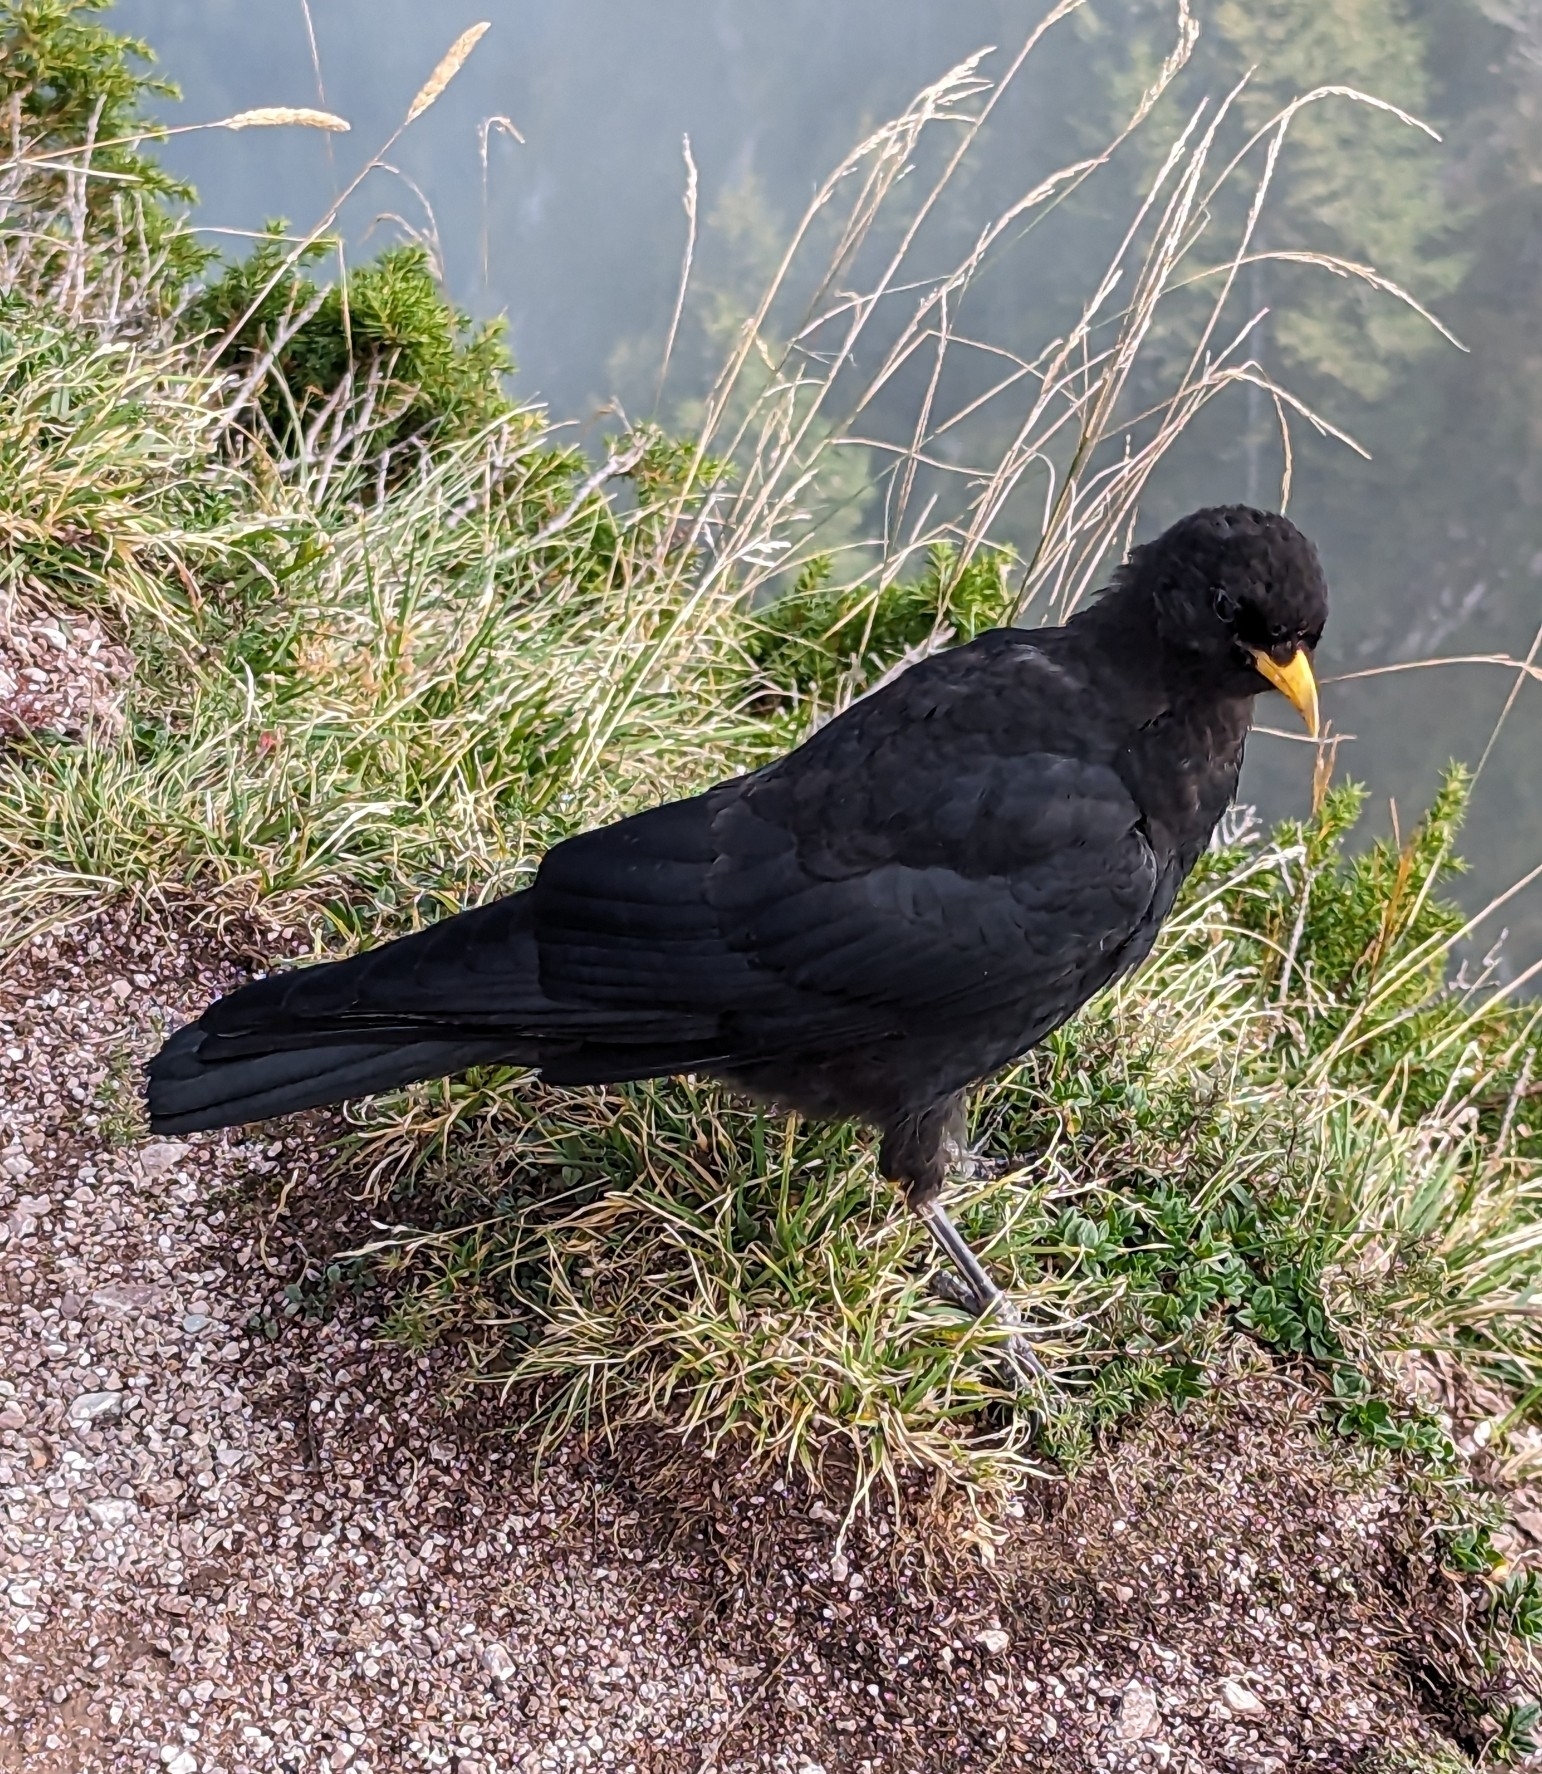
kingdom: Animalia
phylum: Chordata
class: Aves
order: Passeriformes
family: Corvidae
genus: Pyrrhocorax
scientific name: Pyrrhocorax graculus
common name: Alpine chough
